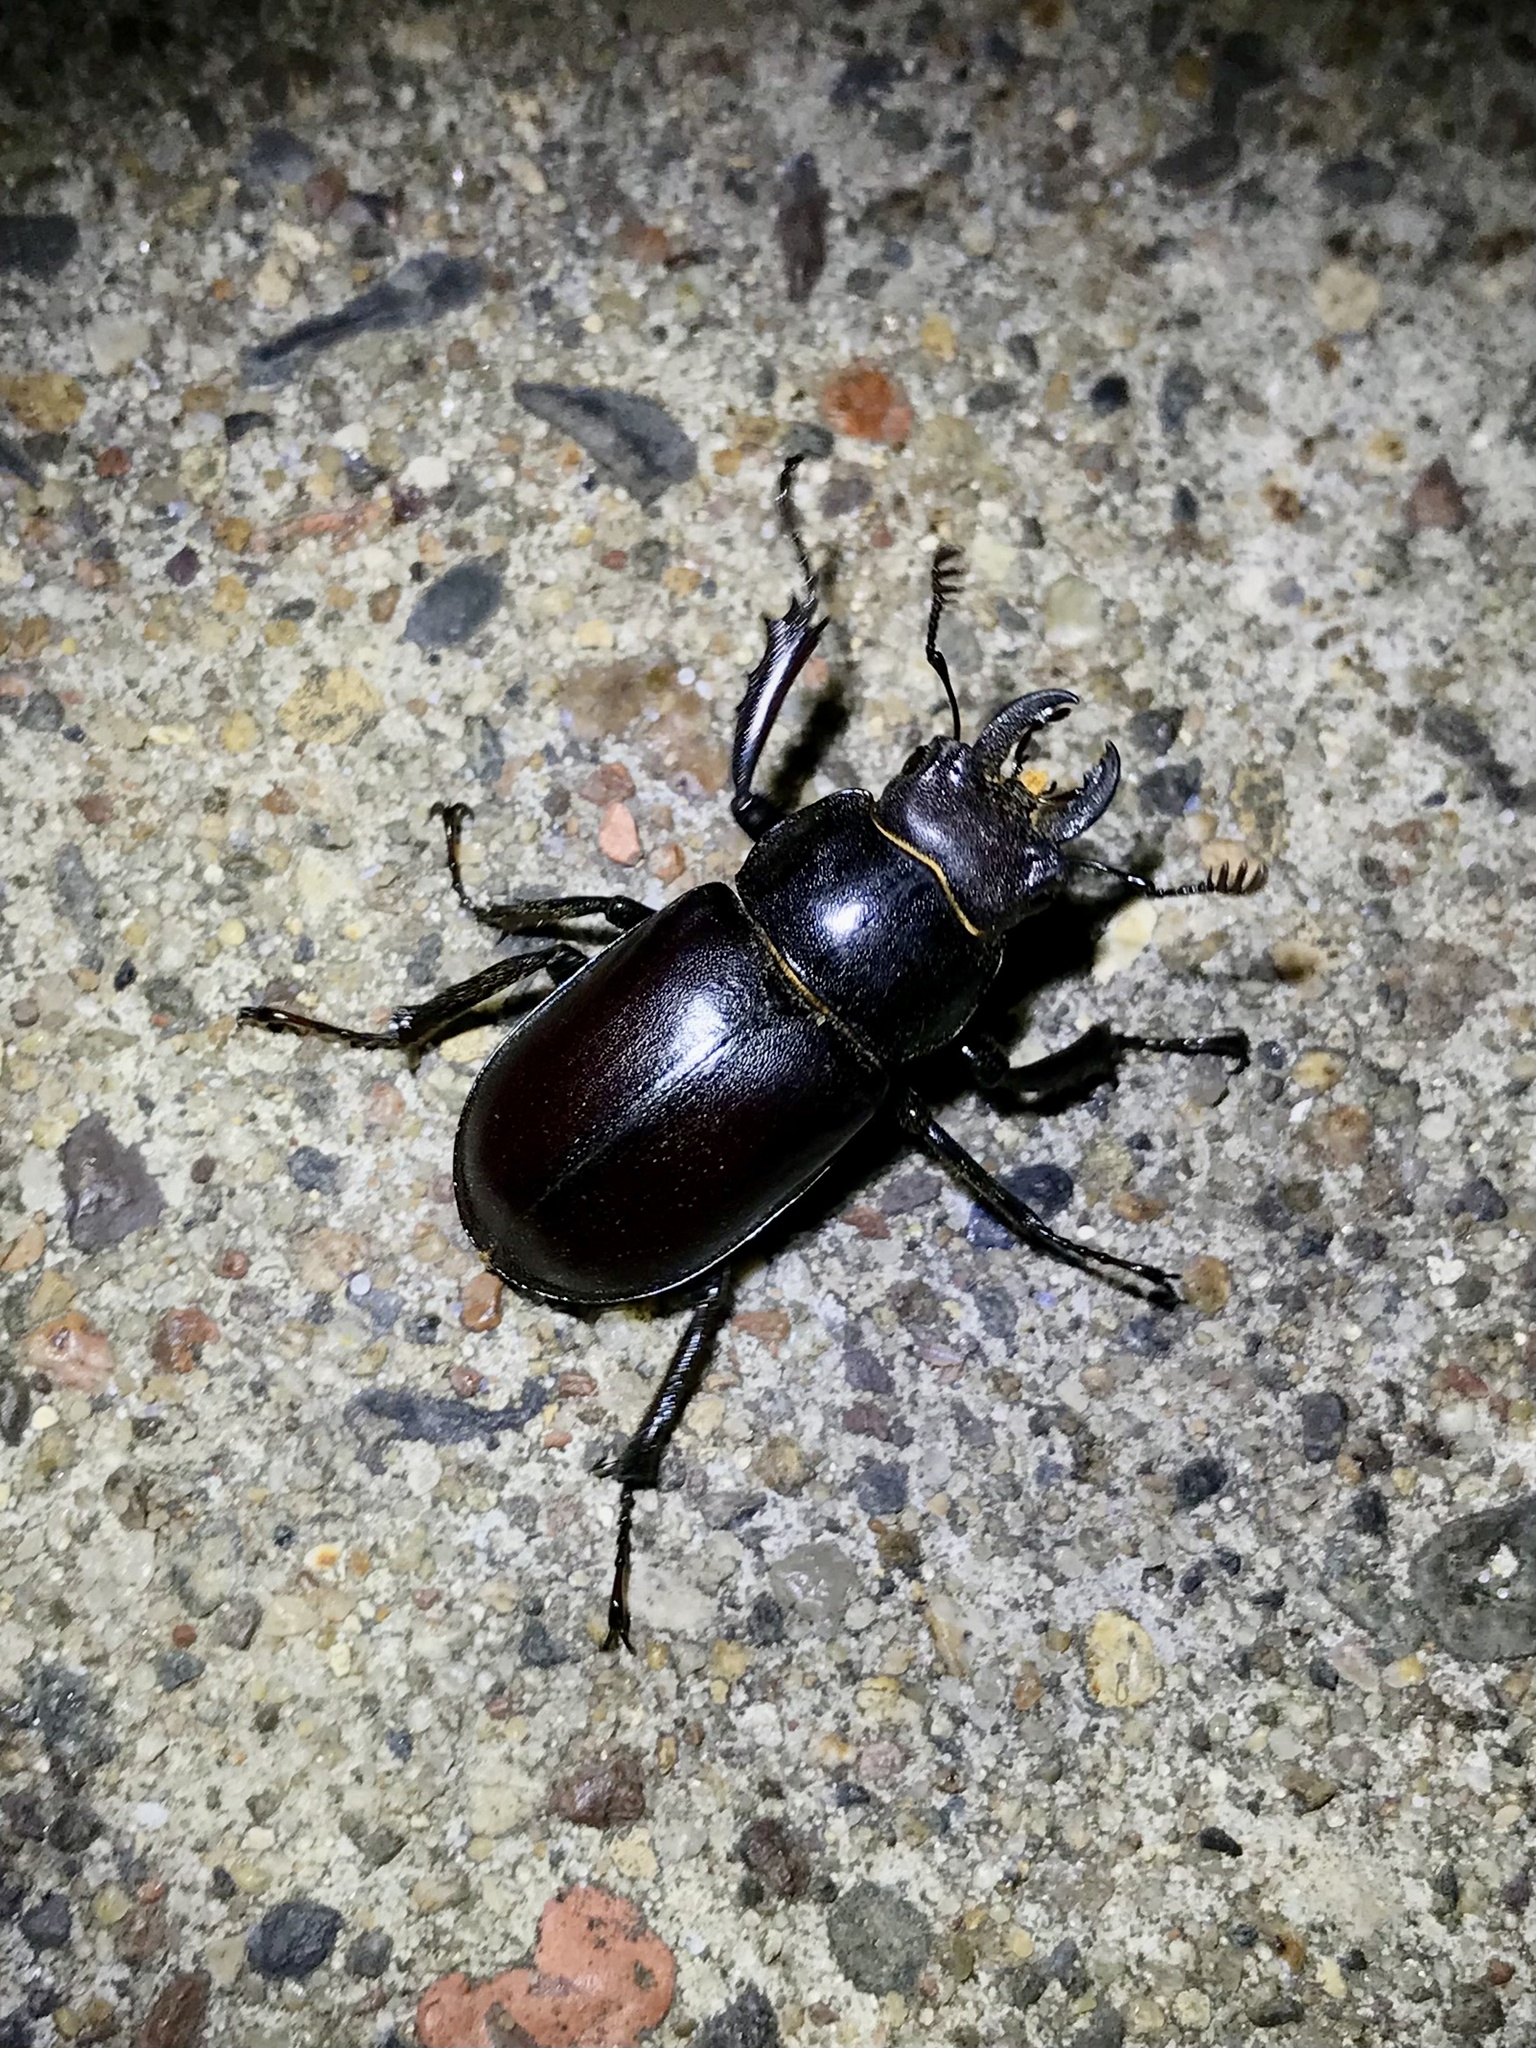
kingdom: Animalia
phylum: Arthropoda
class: Insecta
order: Coleoptera
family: Lucanidae
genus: Lucanus
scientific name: Lucanus placidus
